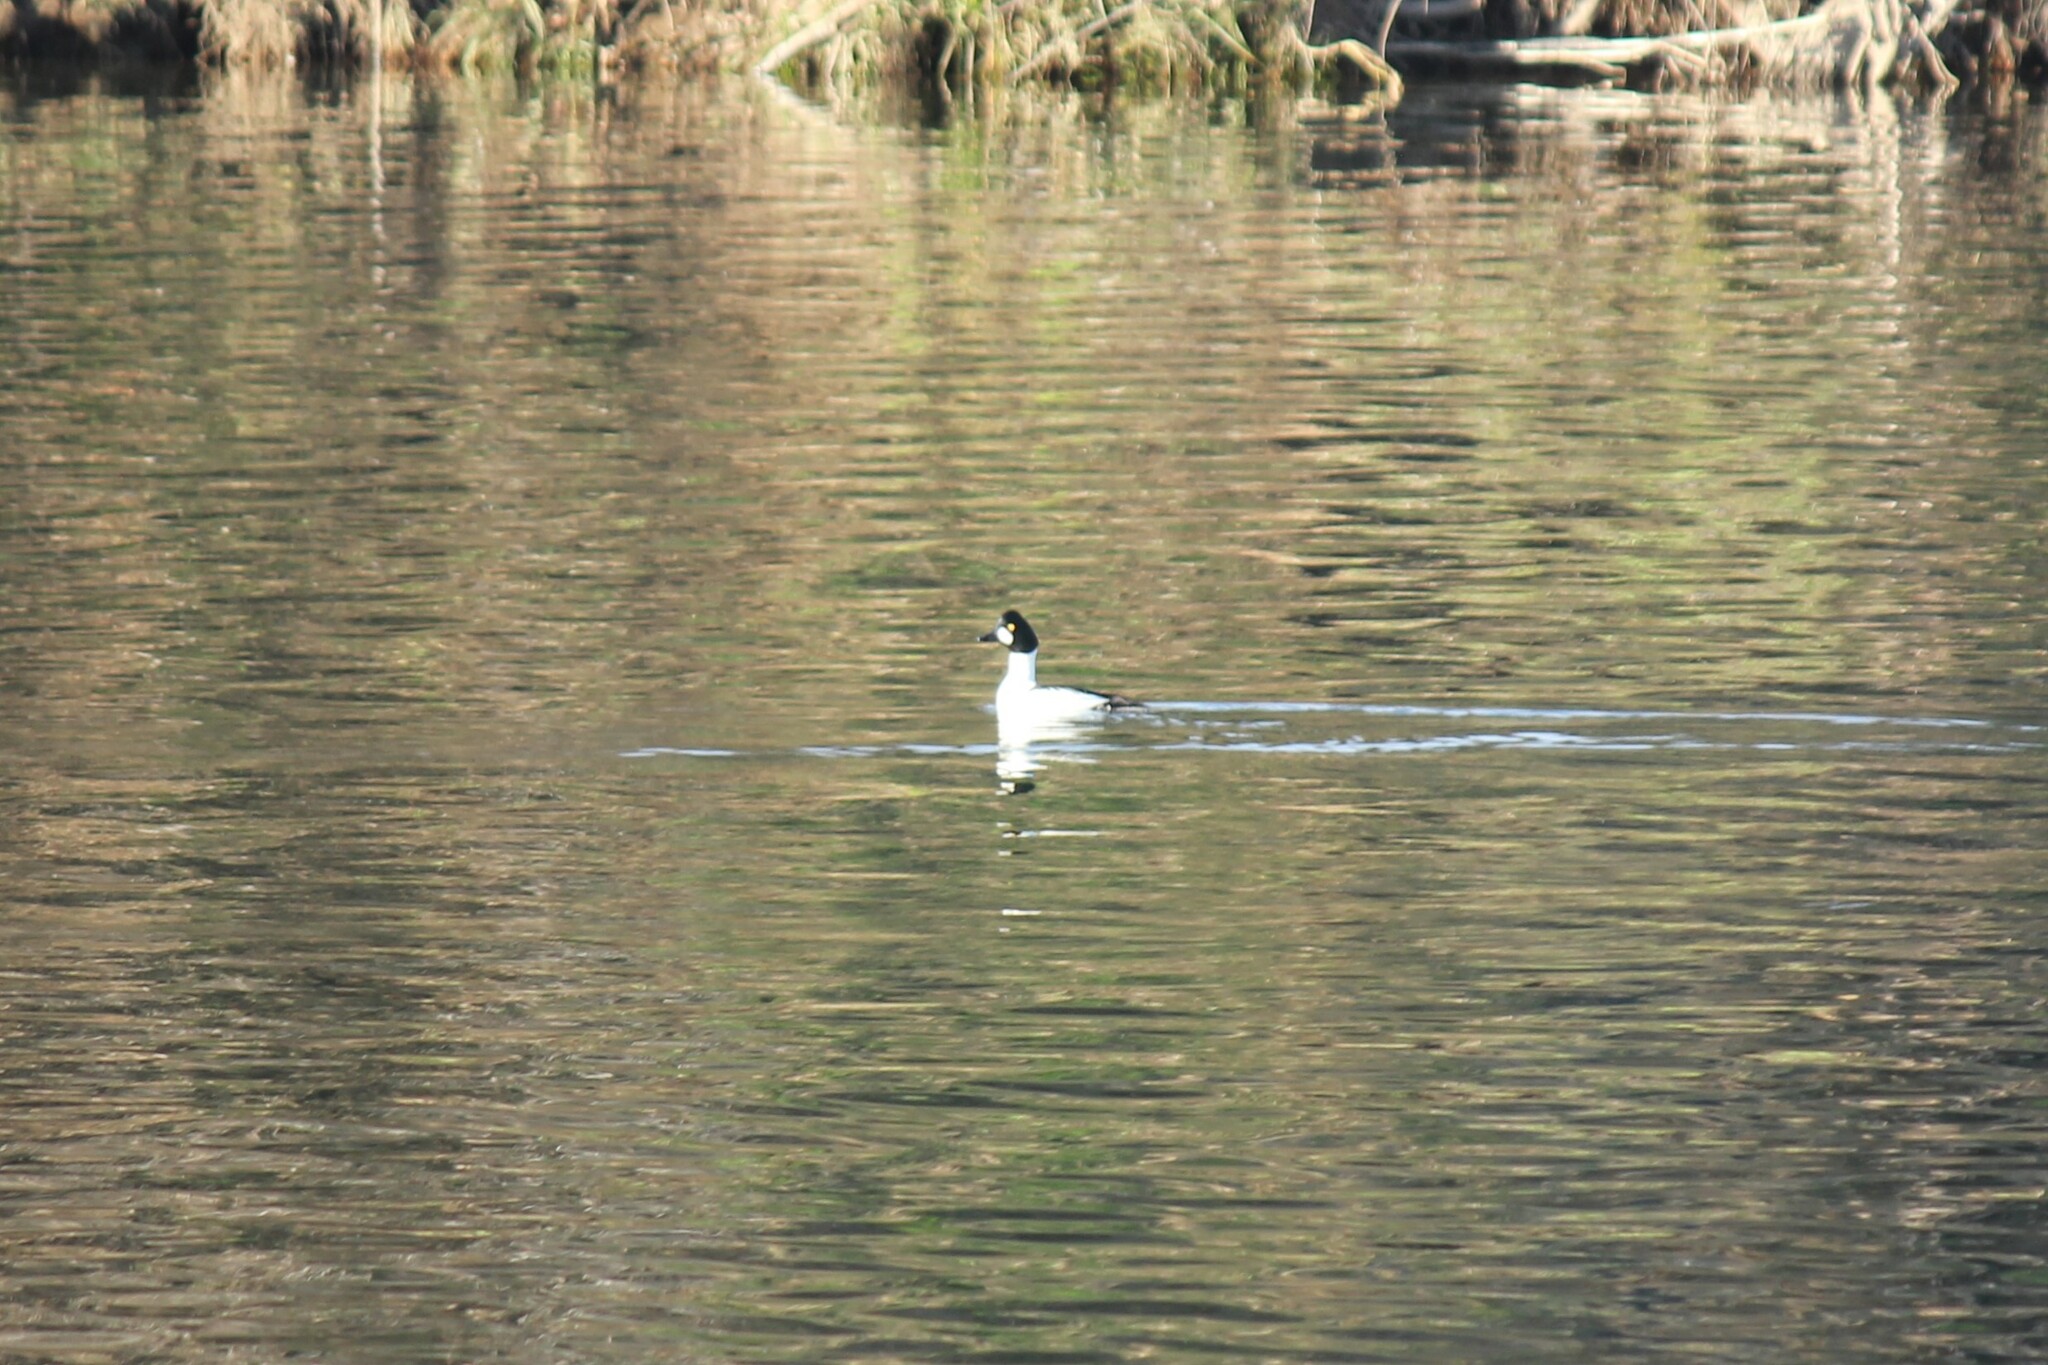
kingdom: Animalia
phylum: Chordata
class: Aves
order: Anseriformes
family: Anatidae
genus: Bucephala
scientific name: Bucephala clangula
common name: Common goldeneye
